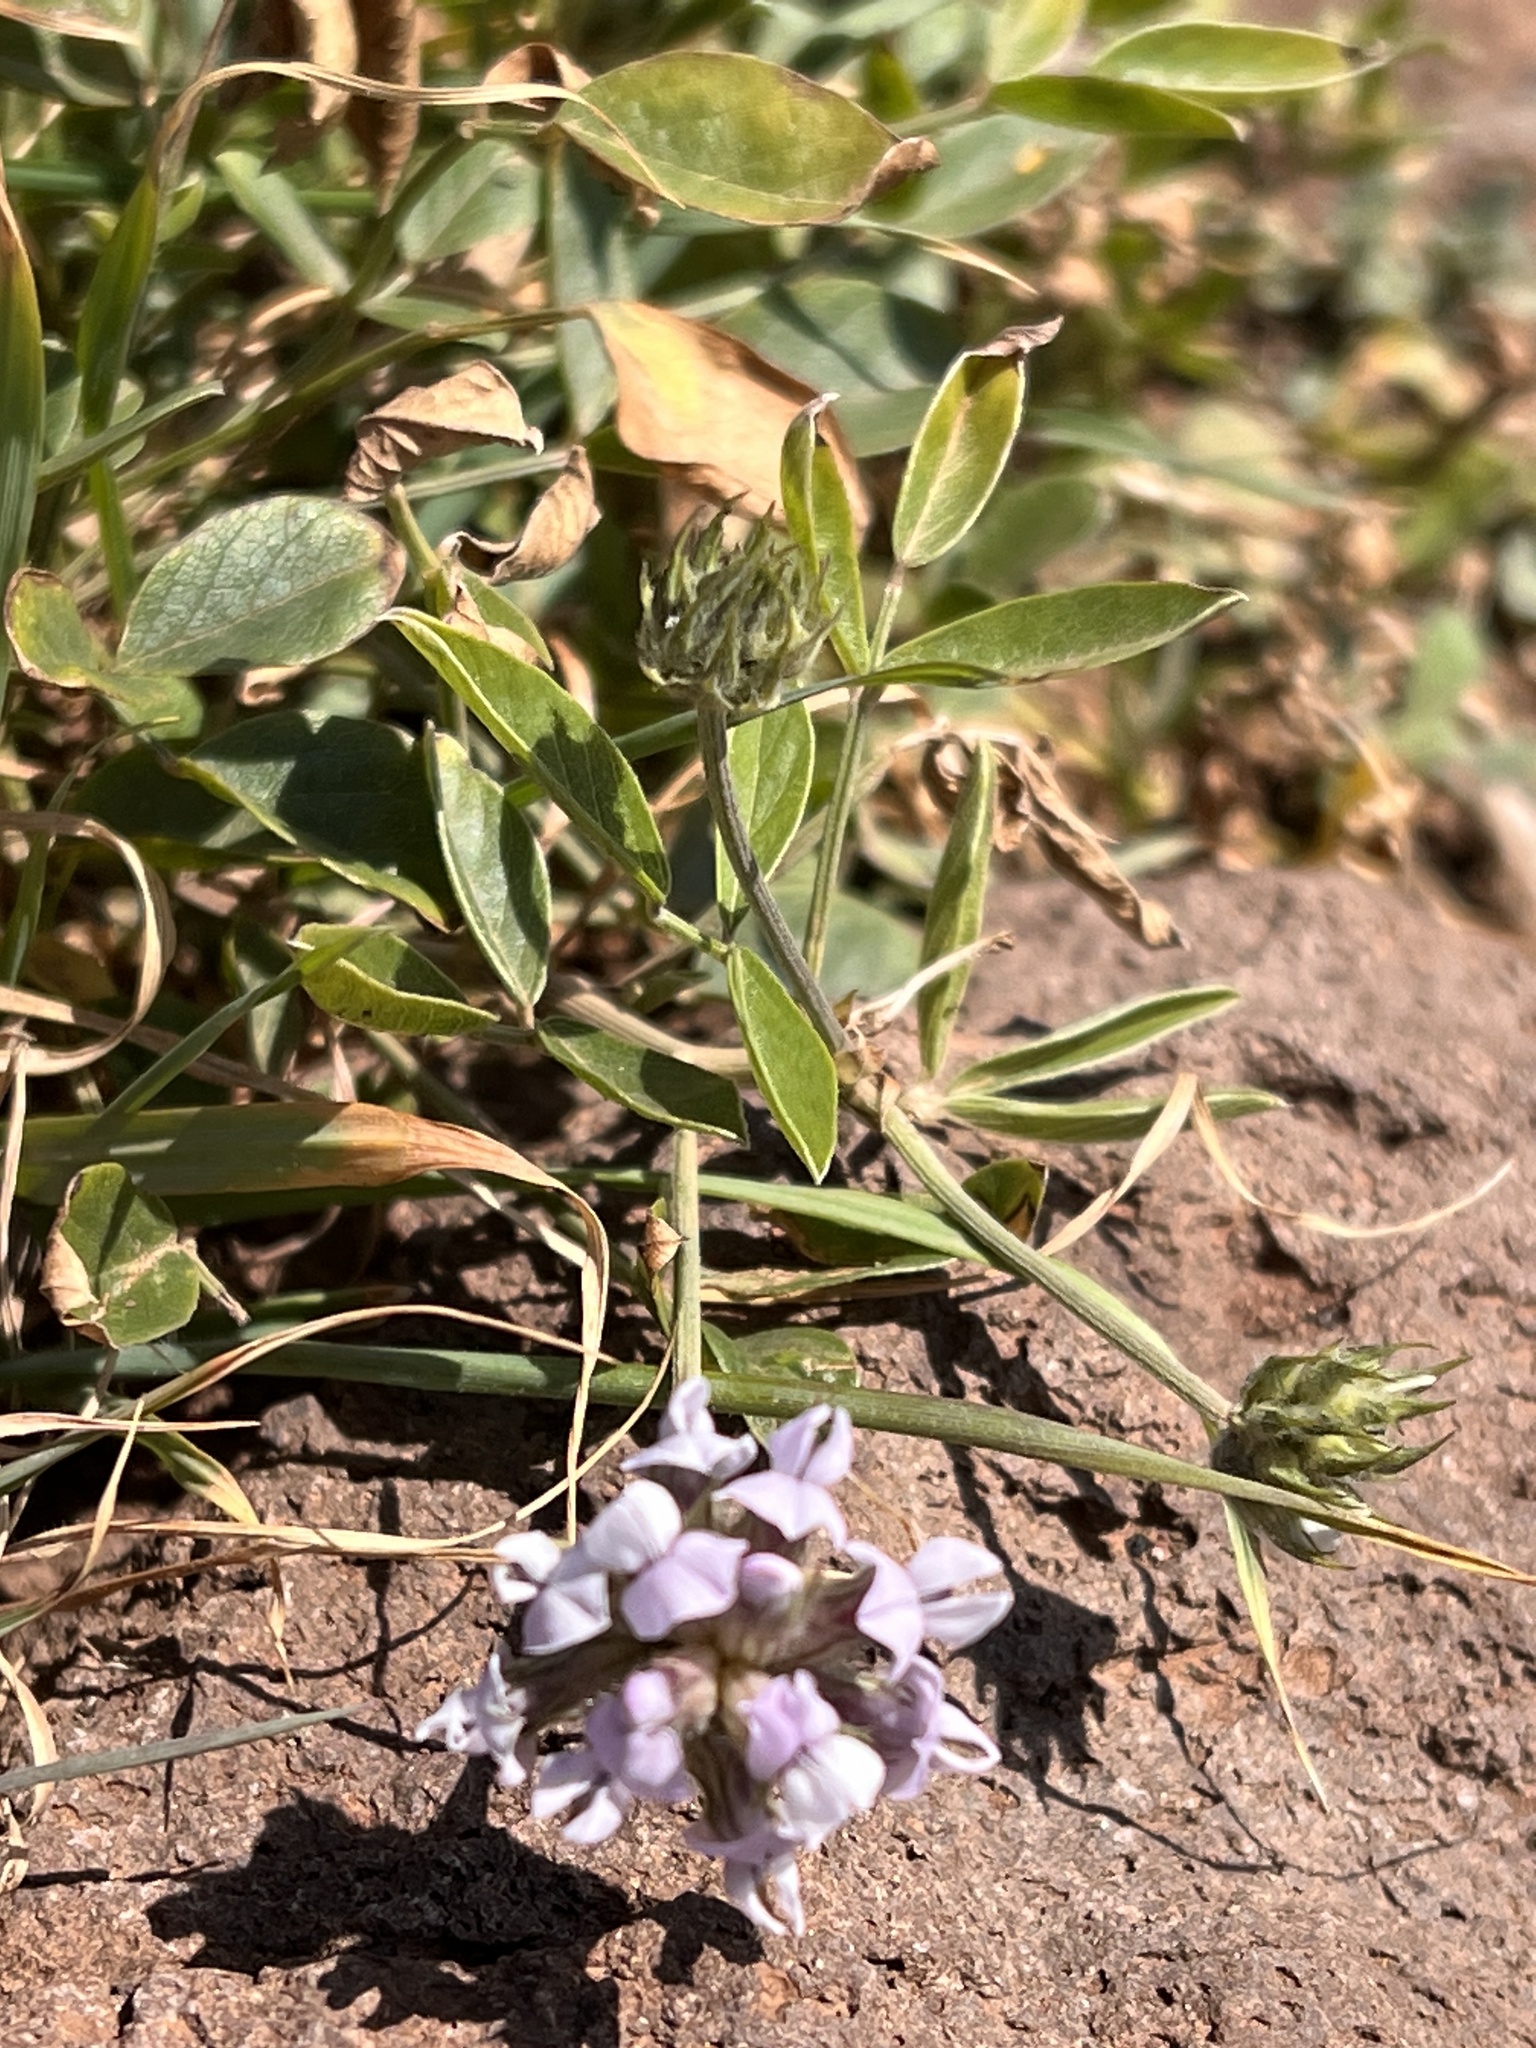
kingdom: Plantae
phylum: Tracheophyta
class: Magnoliopsida
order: Fabales
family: Fabaceae
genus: Bituminaria
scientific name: Bituminaria bituminosa
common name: Arabian pea
